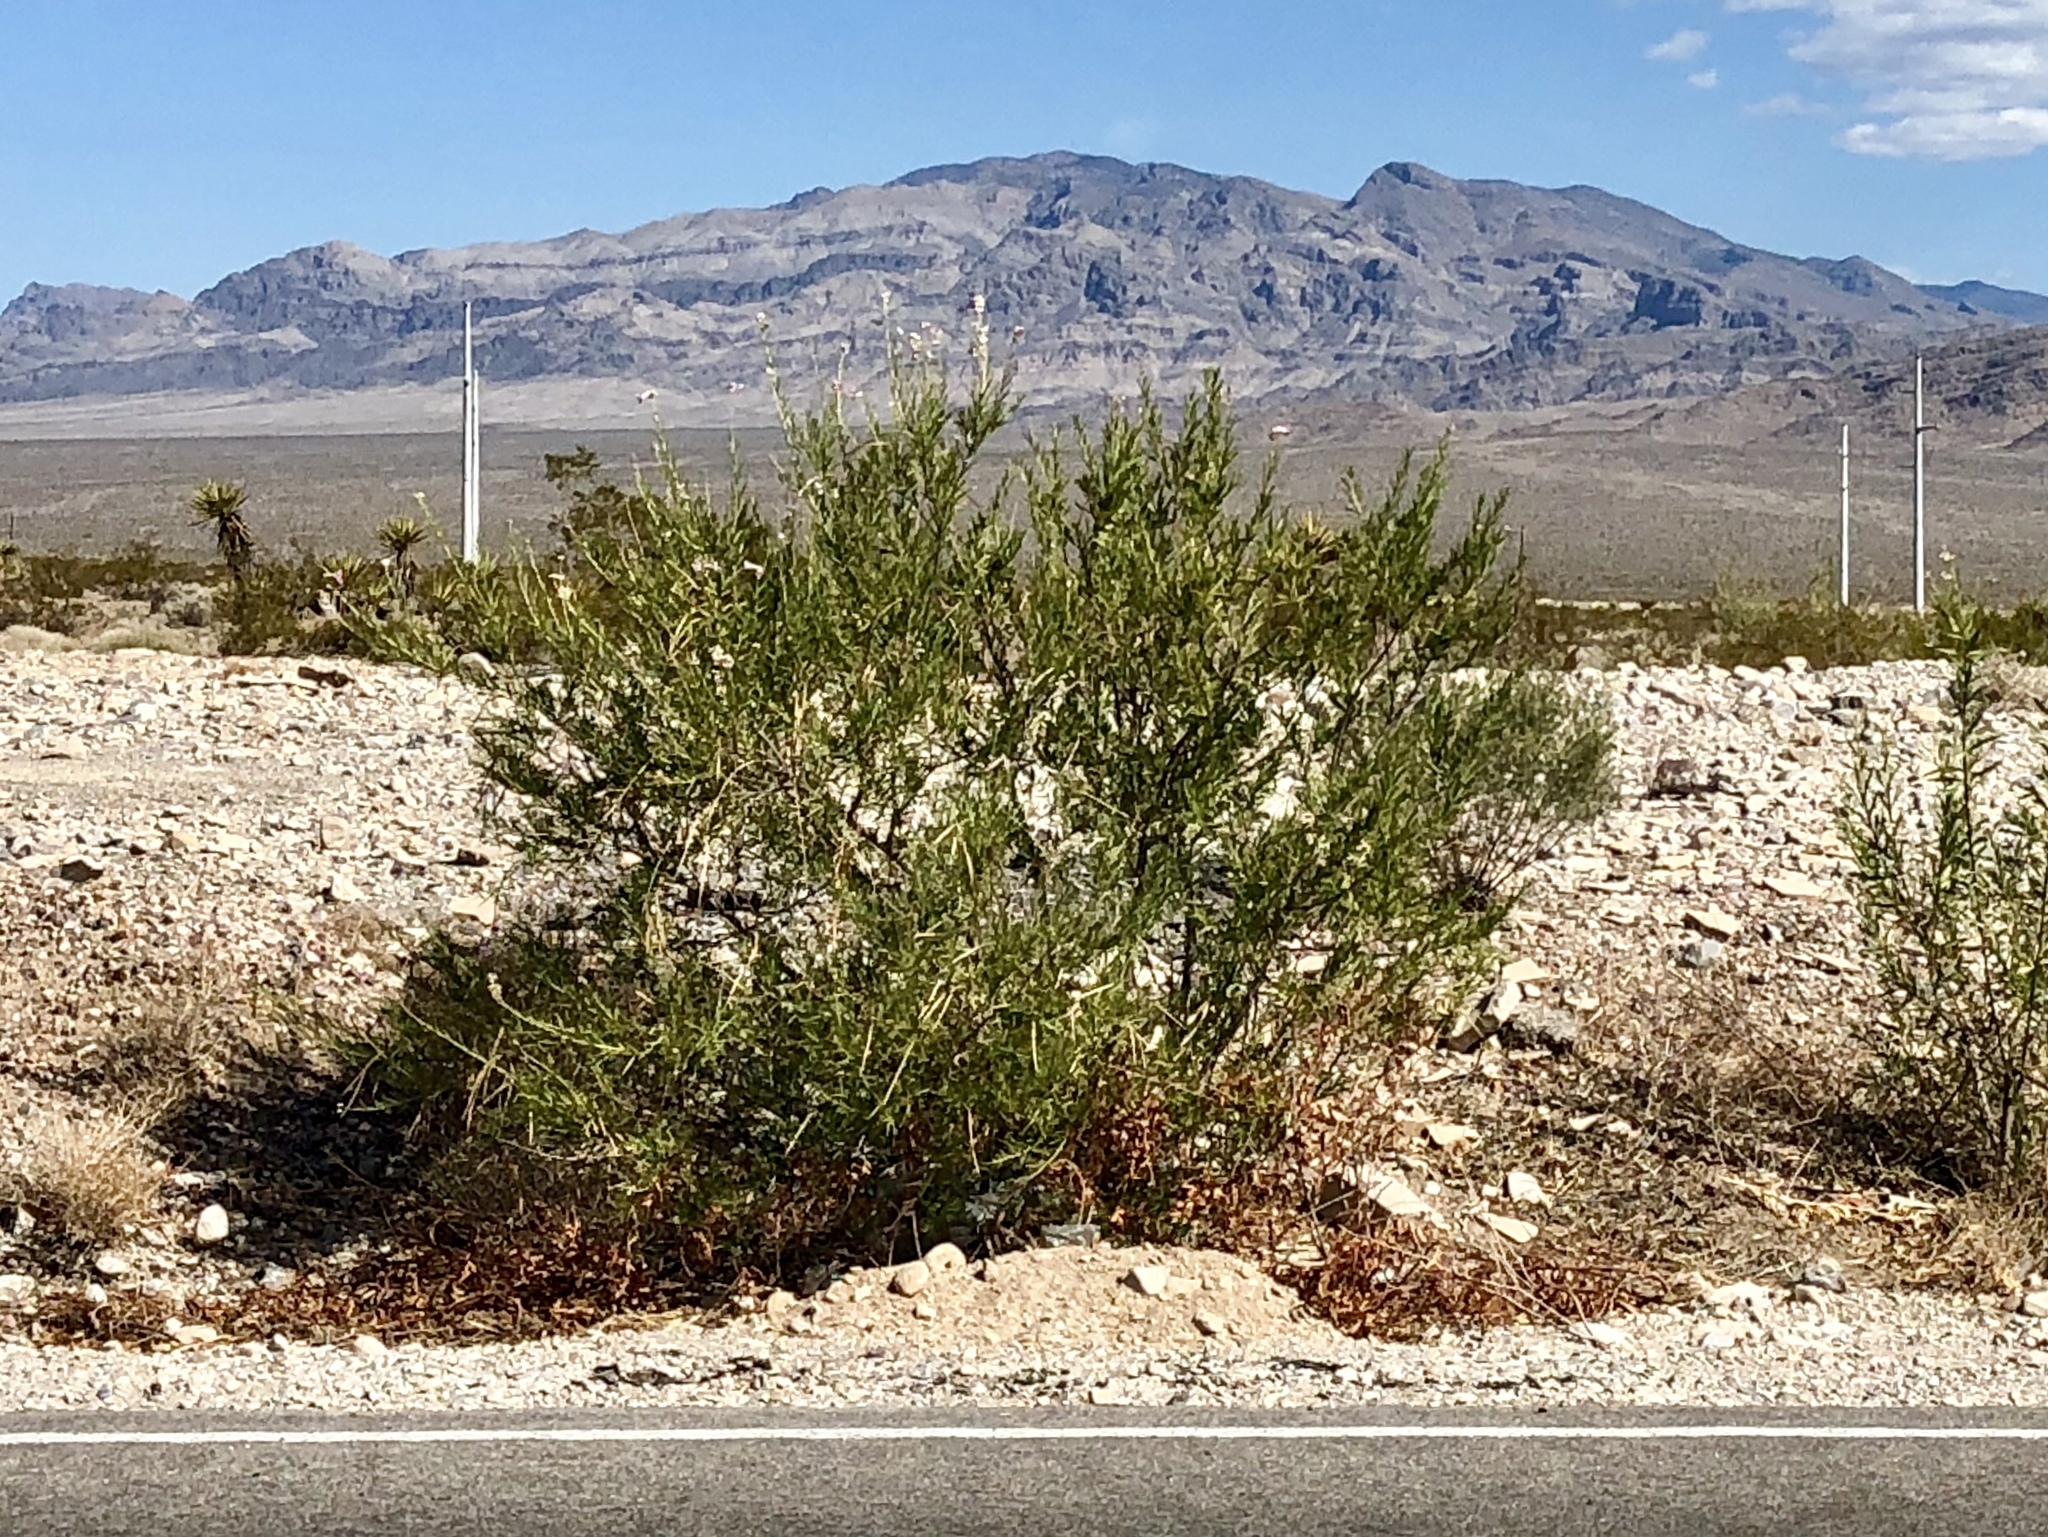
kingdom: Plantae
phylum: Tracheophyta
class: Magnoliopsida
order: Lamiales
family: Bignoniaceae
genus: Chilopsis
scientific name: Chilopsis linearis
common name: Desert-willow
